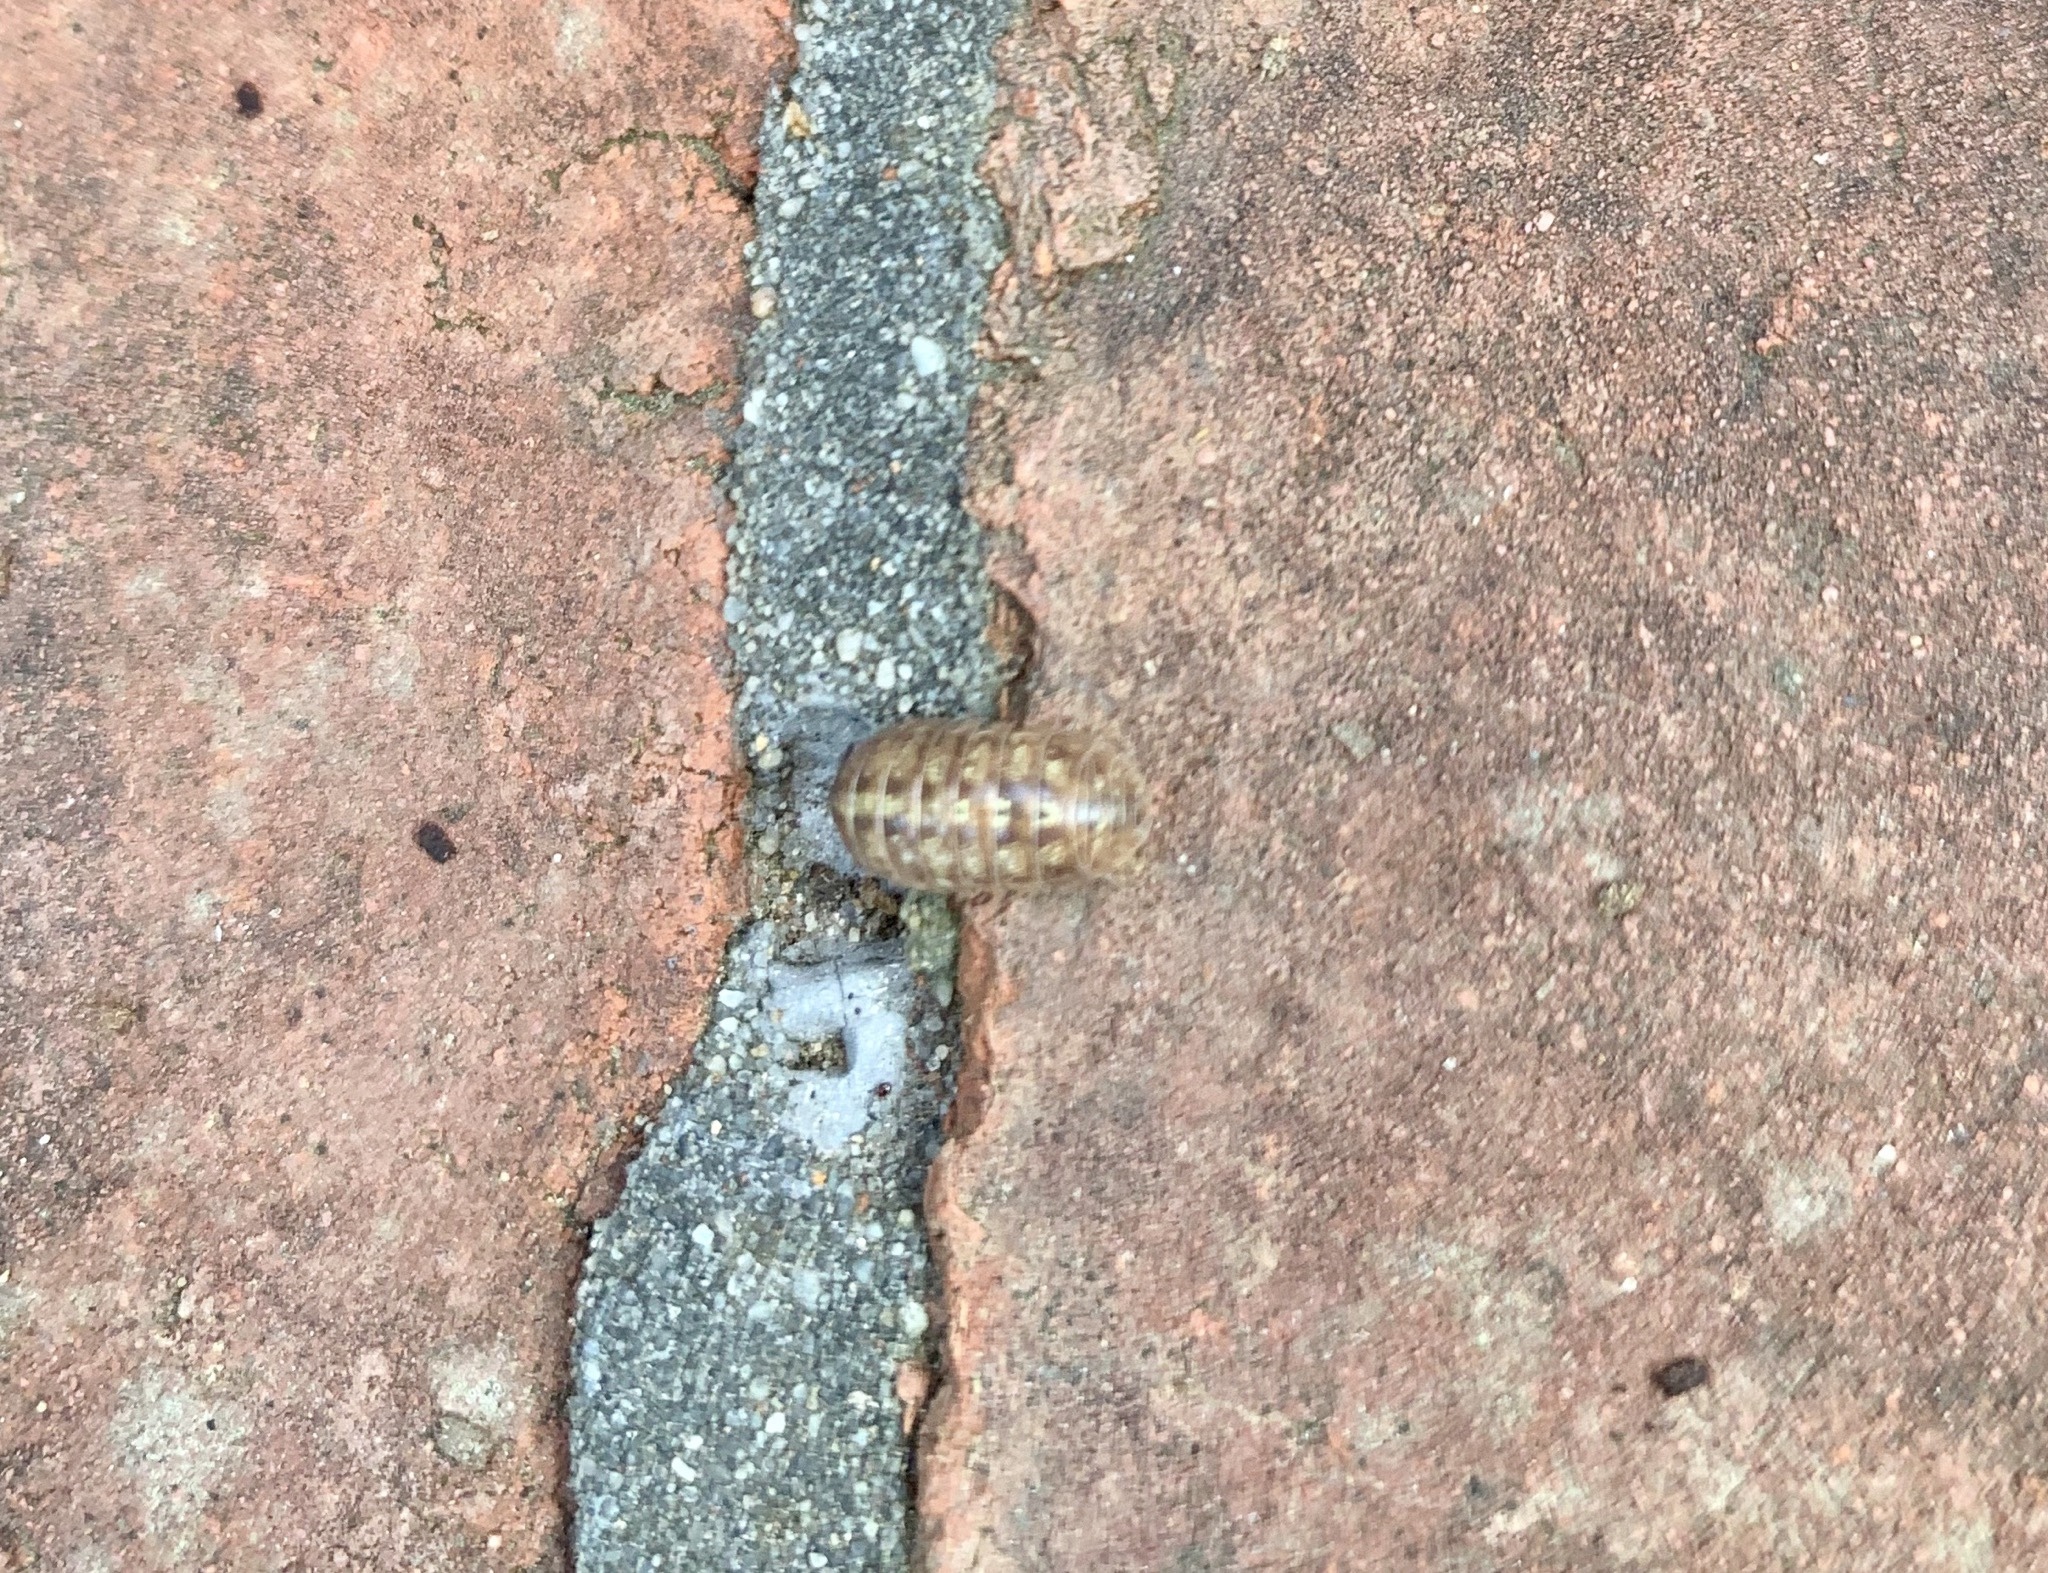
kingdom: Animalia
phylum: Arthropoda
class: Malacostraca
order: Isopoda
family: Armadillidiidae
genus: Armadillidium
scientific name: Armadillidium vulgare
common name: Common pill woodlouse
